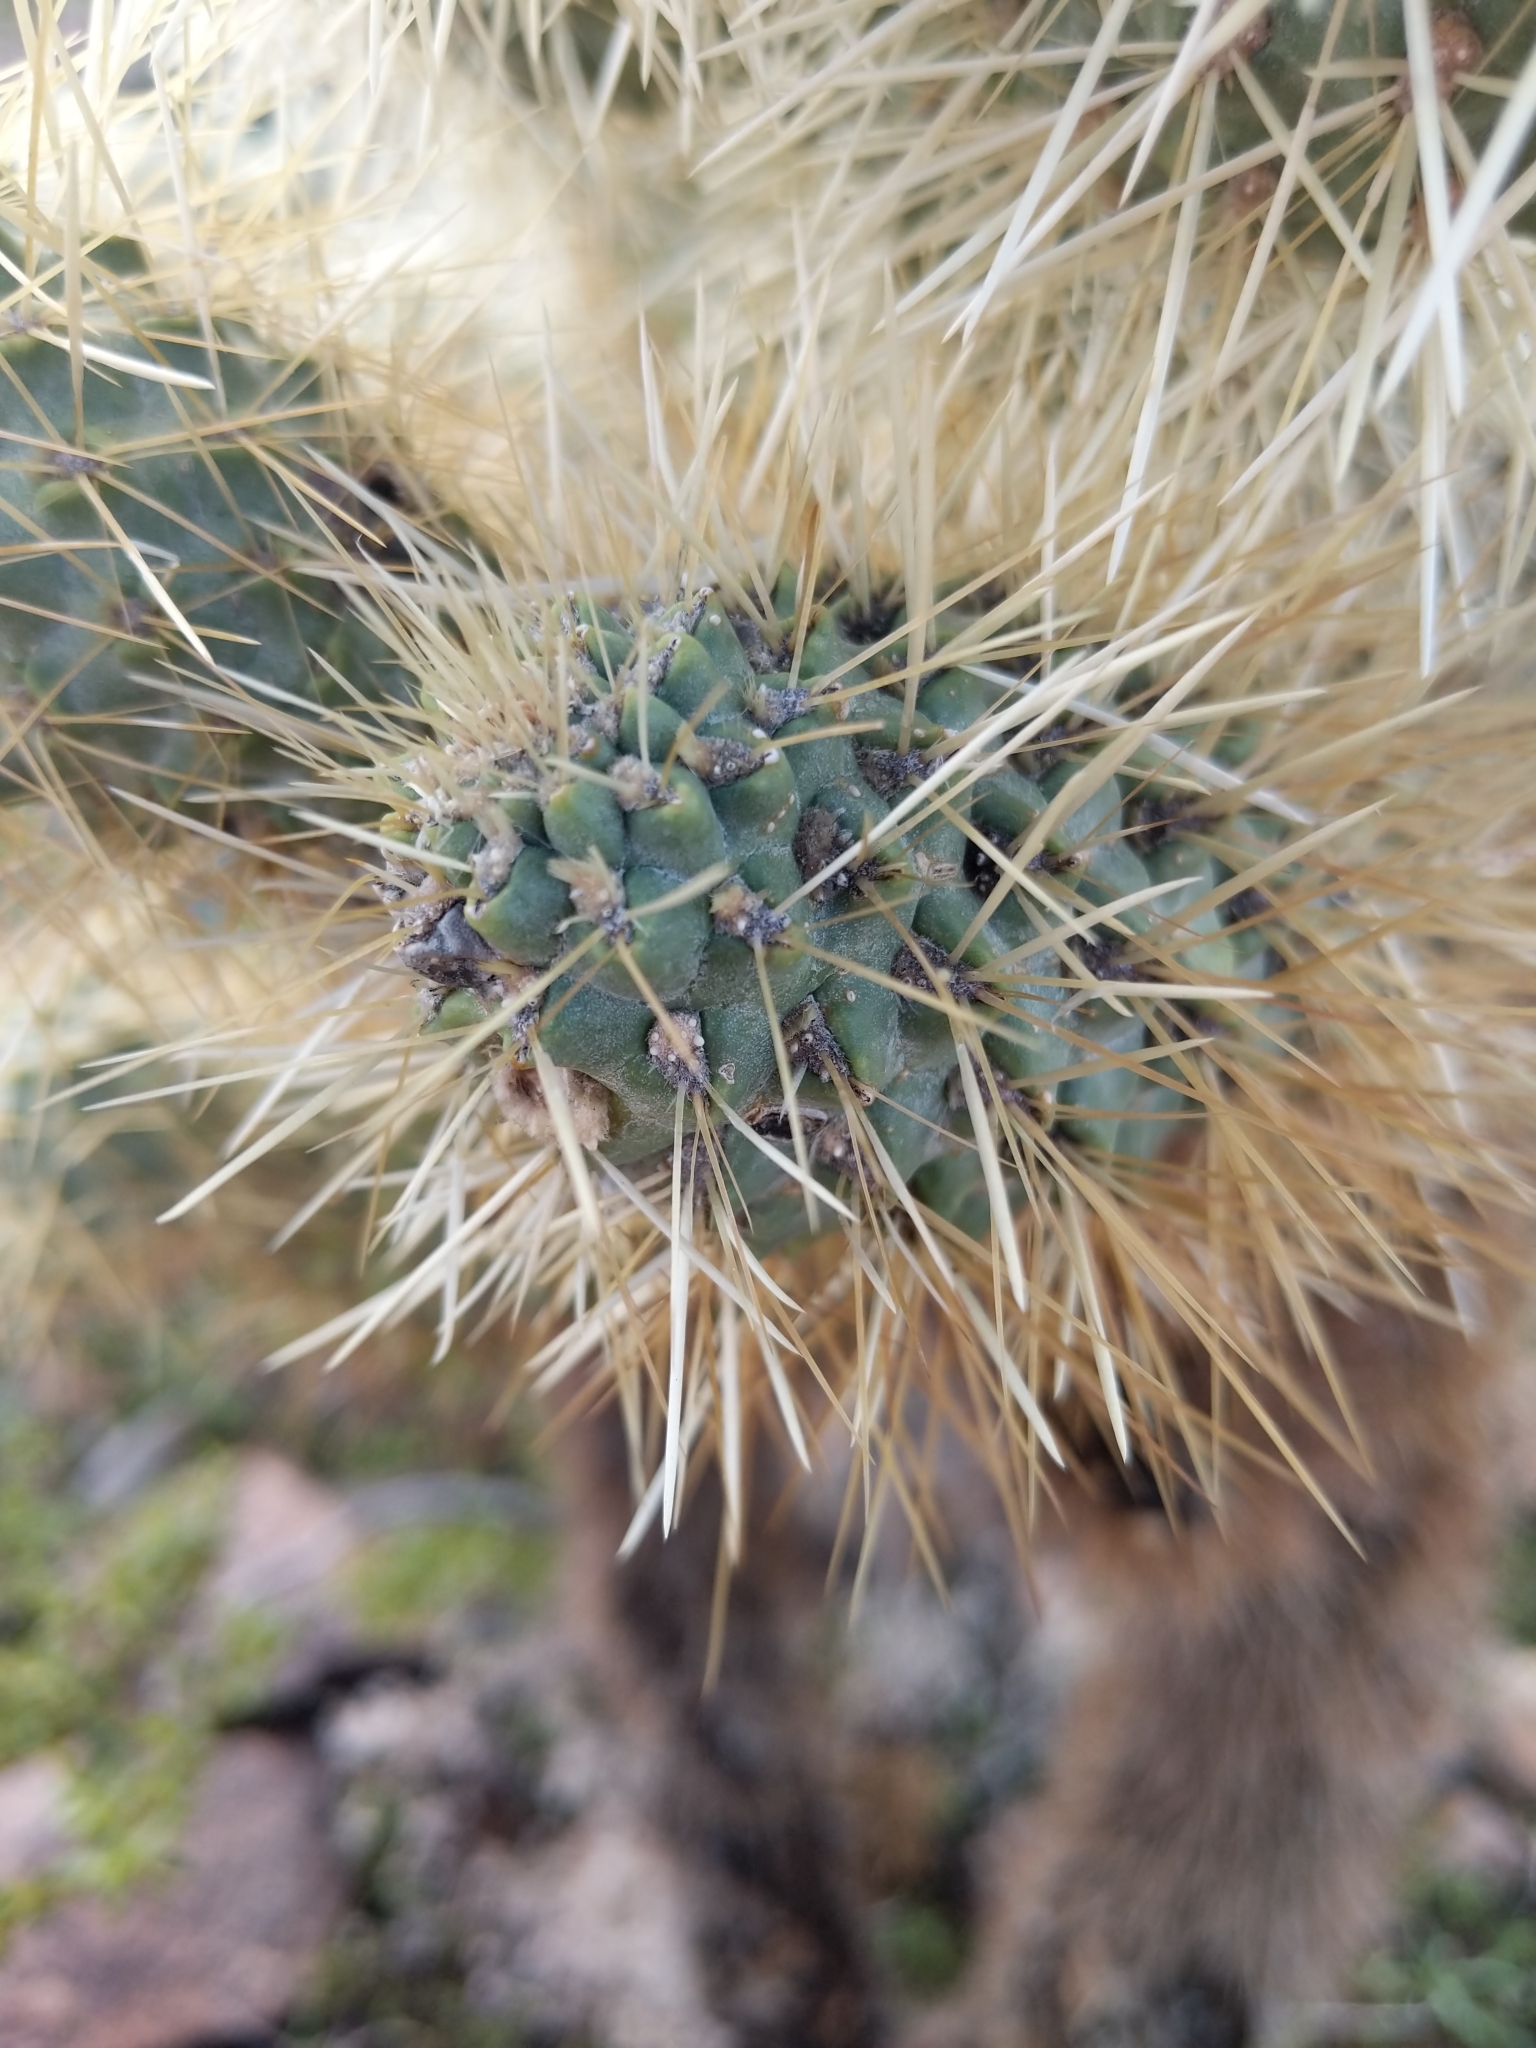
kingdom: Plantae
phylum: Tracheophyta
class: Magnoliopsida
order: Caryophyllales
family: Cactaceae
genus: Cylindropuntia
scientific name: Cylindropuntia fosbergii
